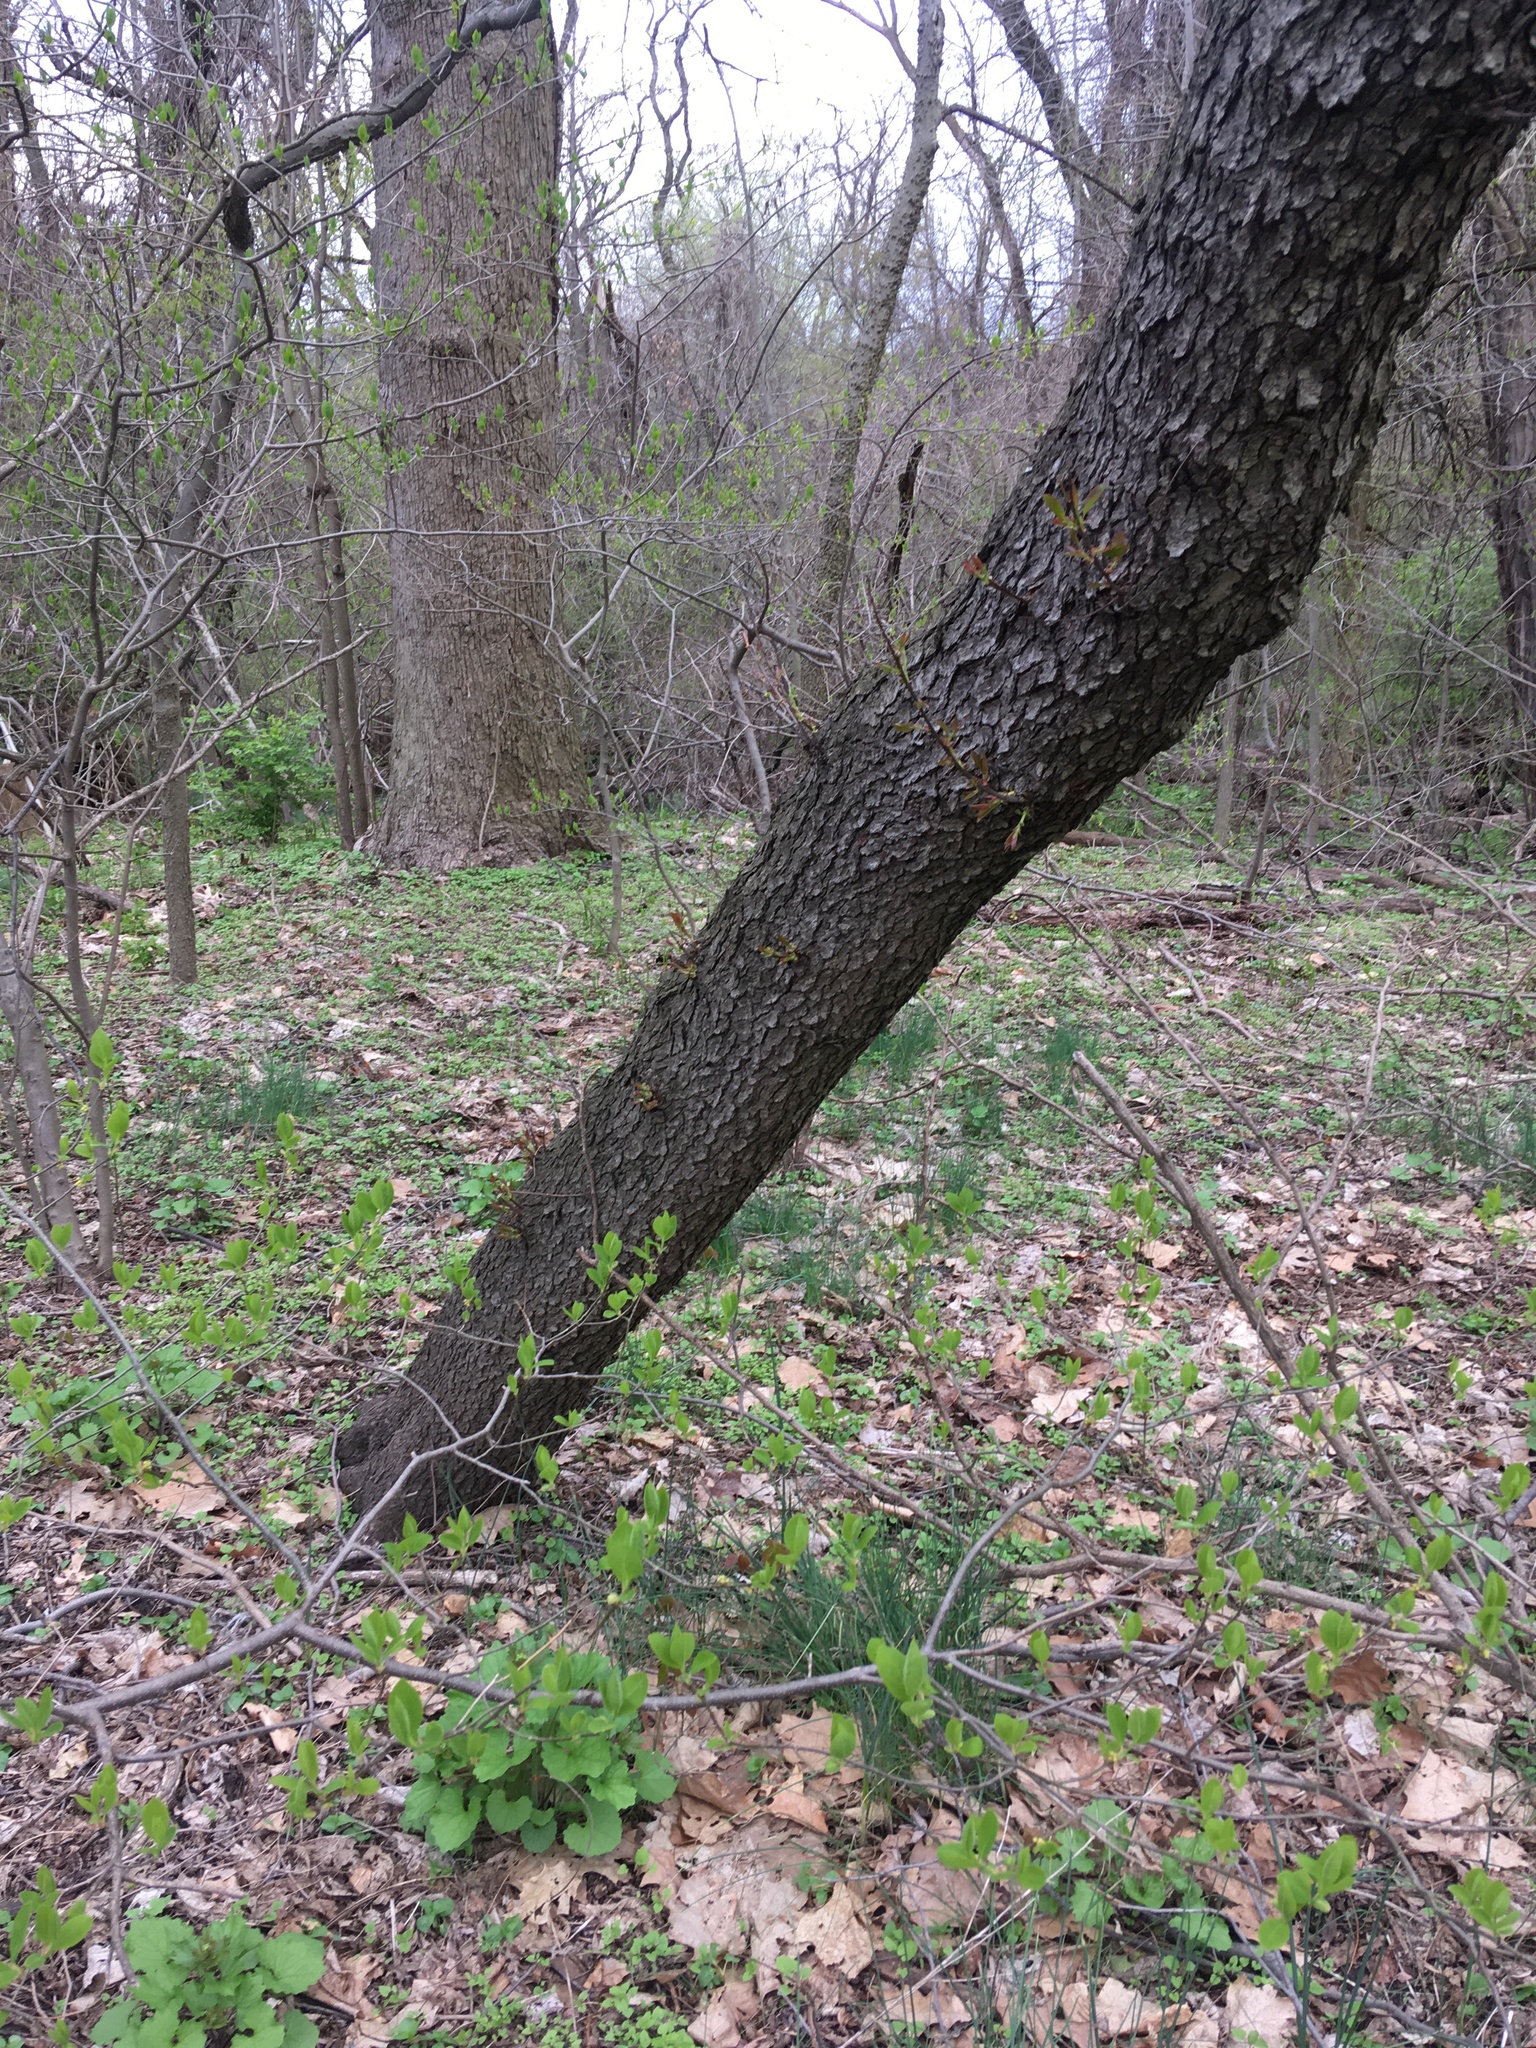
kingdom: Plantae
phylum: Tracheophyta
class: Magnoliopsida
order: Rosales
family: Rosaceae
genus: Prunus
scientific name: Prunus serotina
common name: Black cherry
